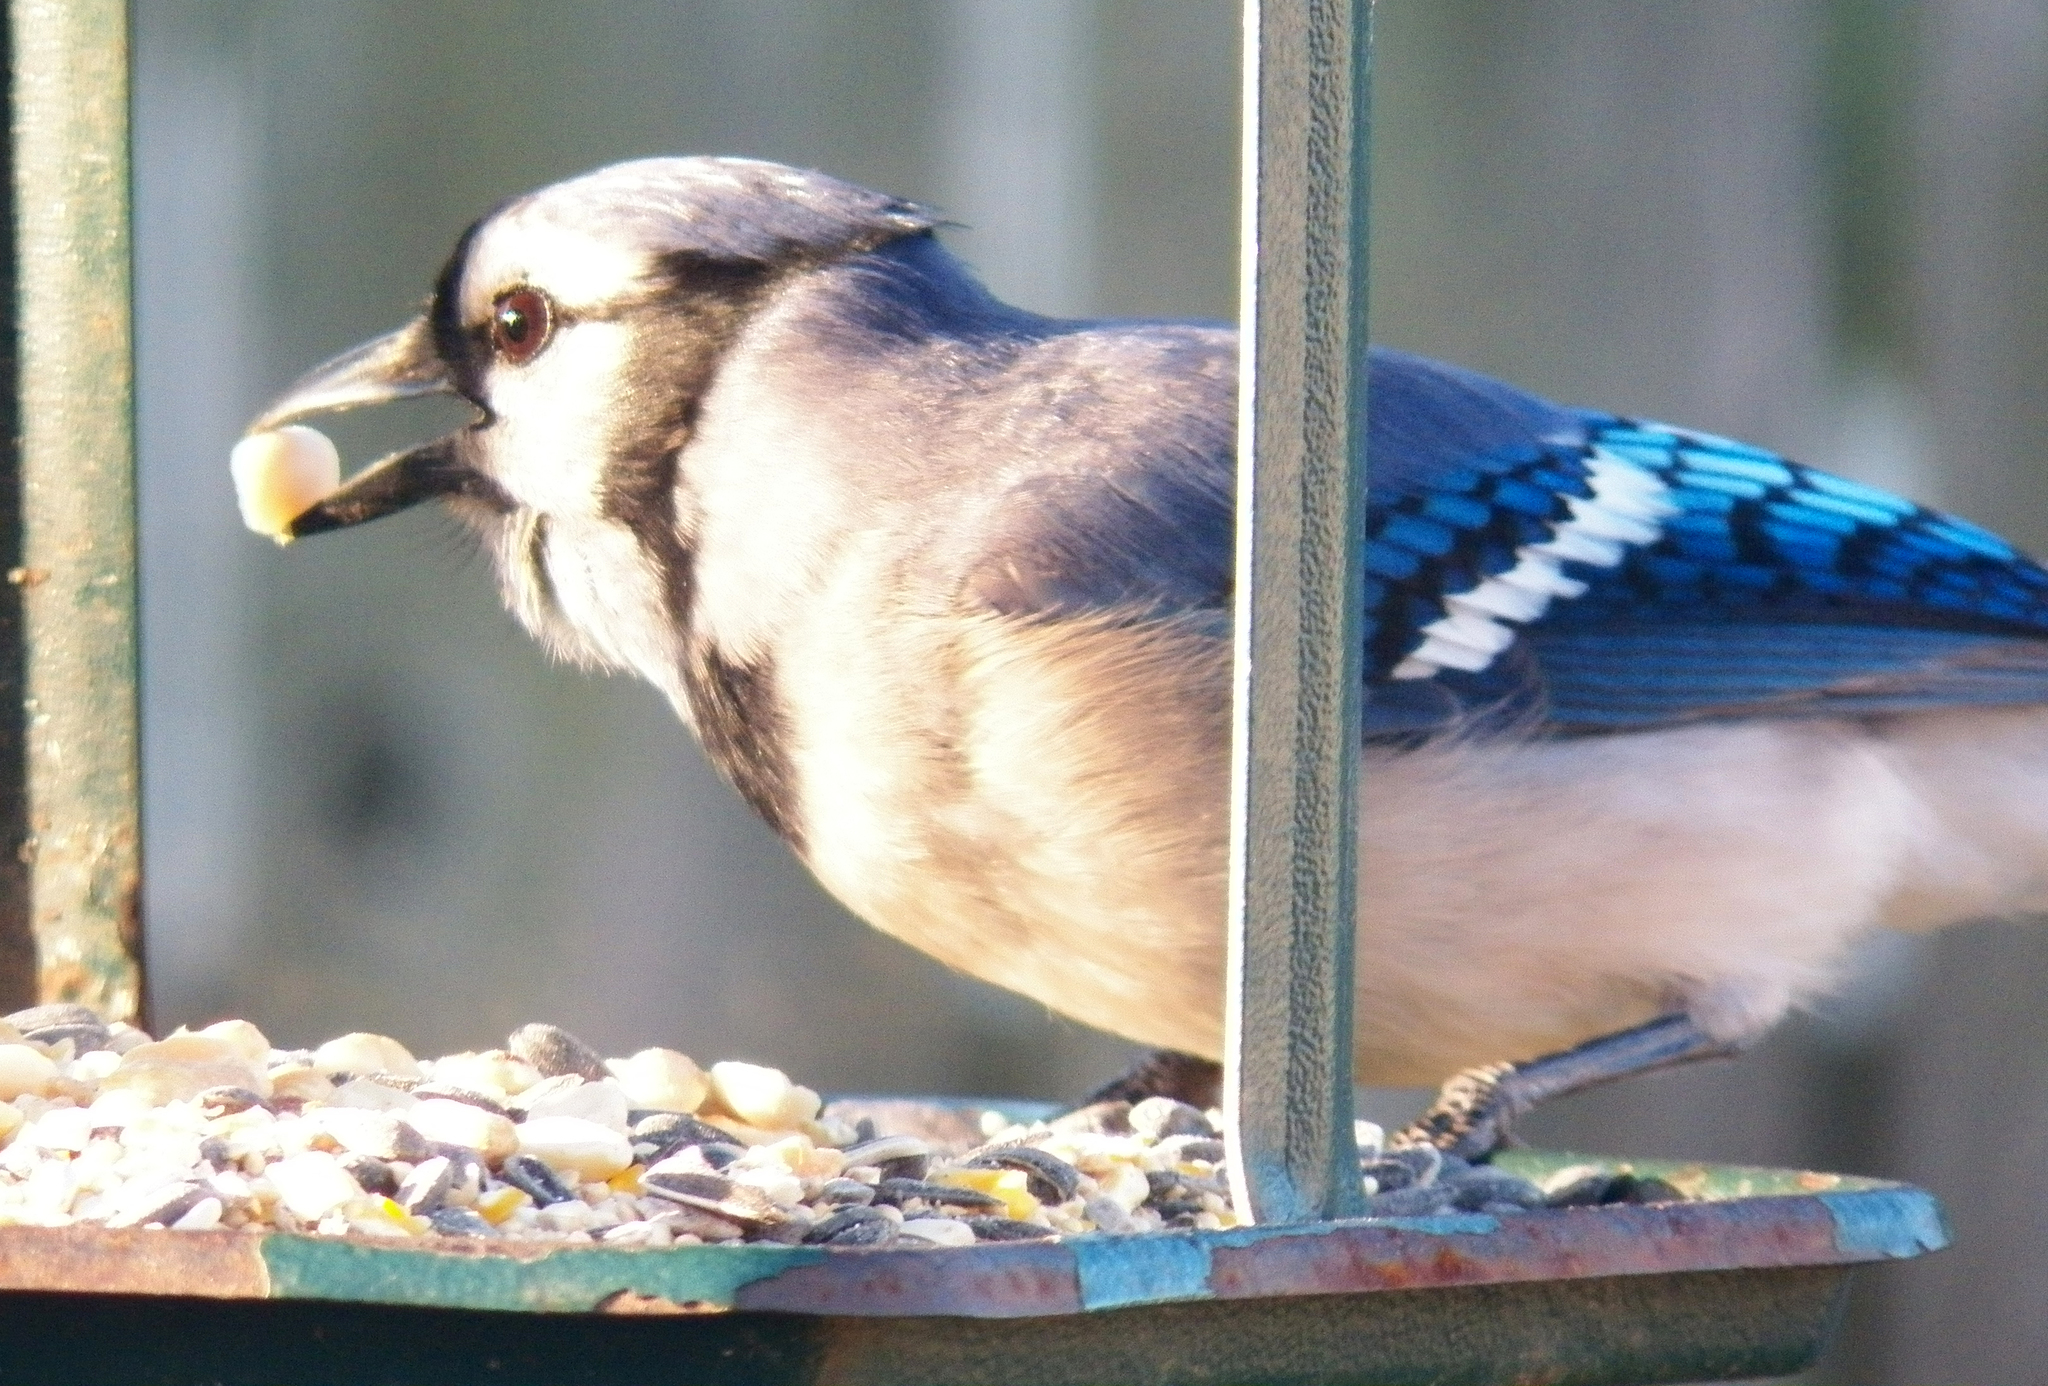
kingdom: Animalia
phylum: Chordata
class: Aves
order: Passeriformes
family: Corvidae
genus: Cyanocitta
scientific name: Cyanocitta cristata
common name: Blue jay
